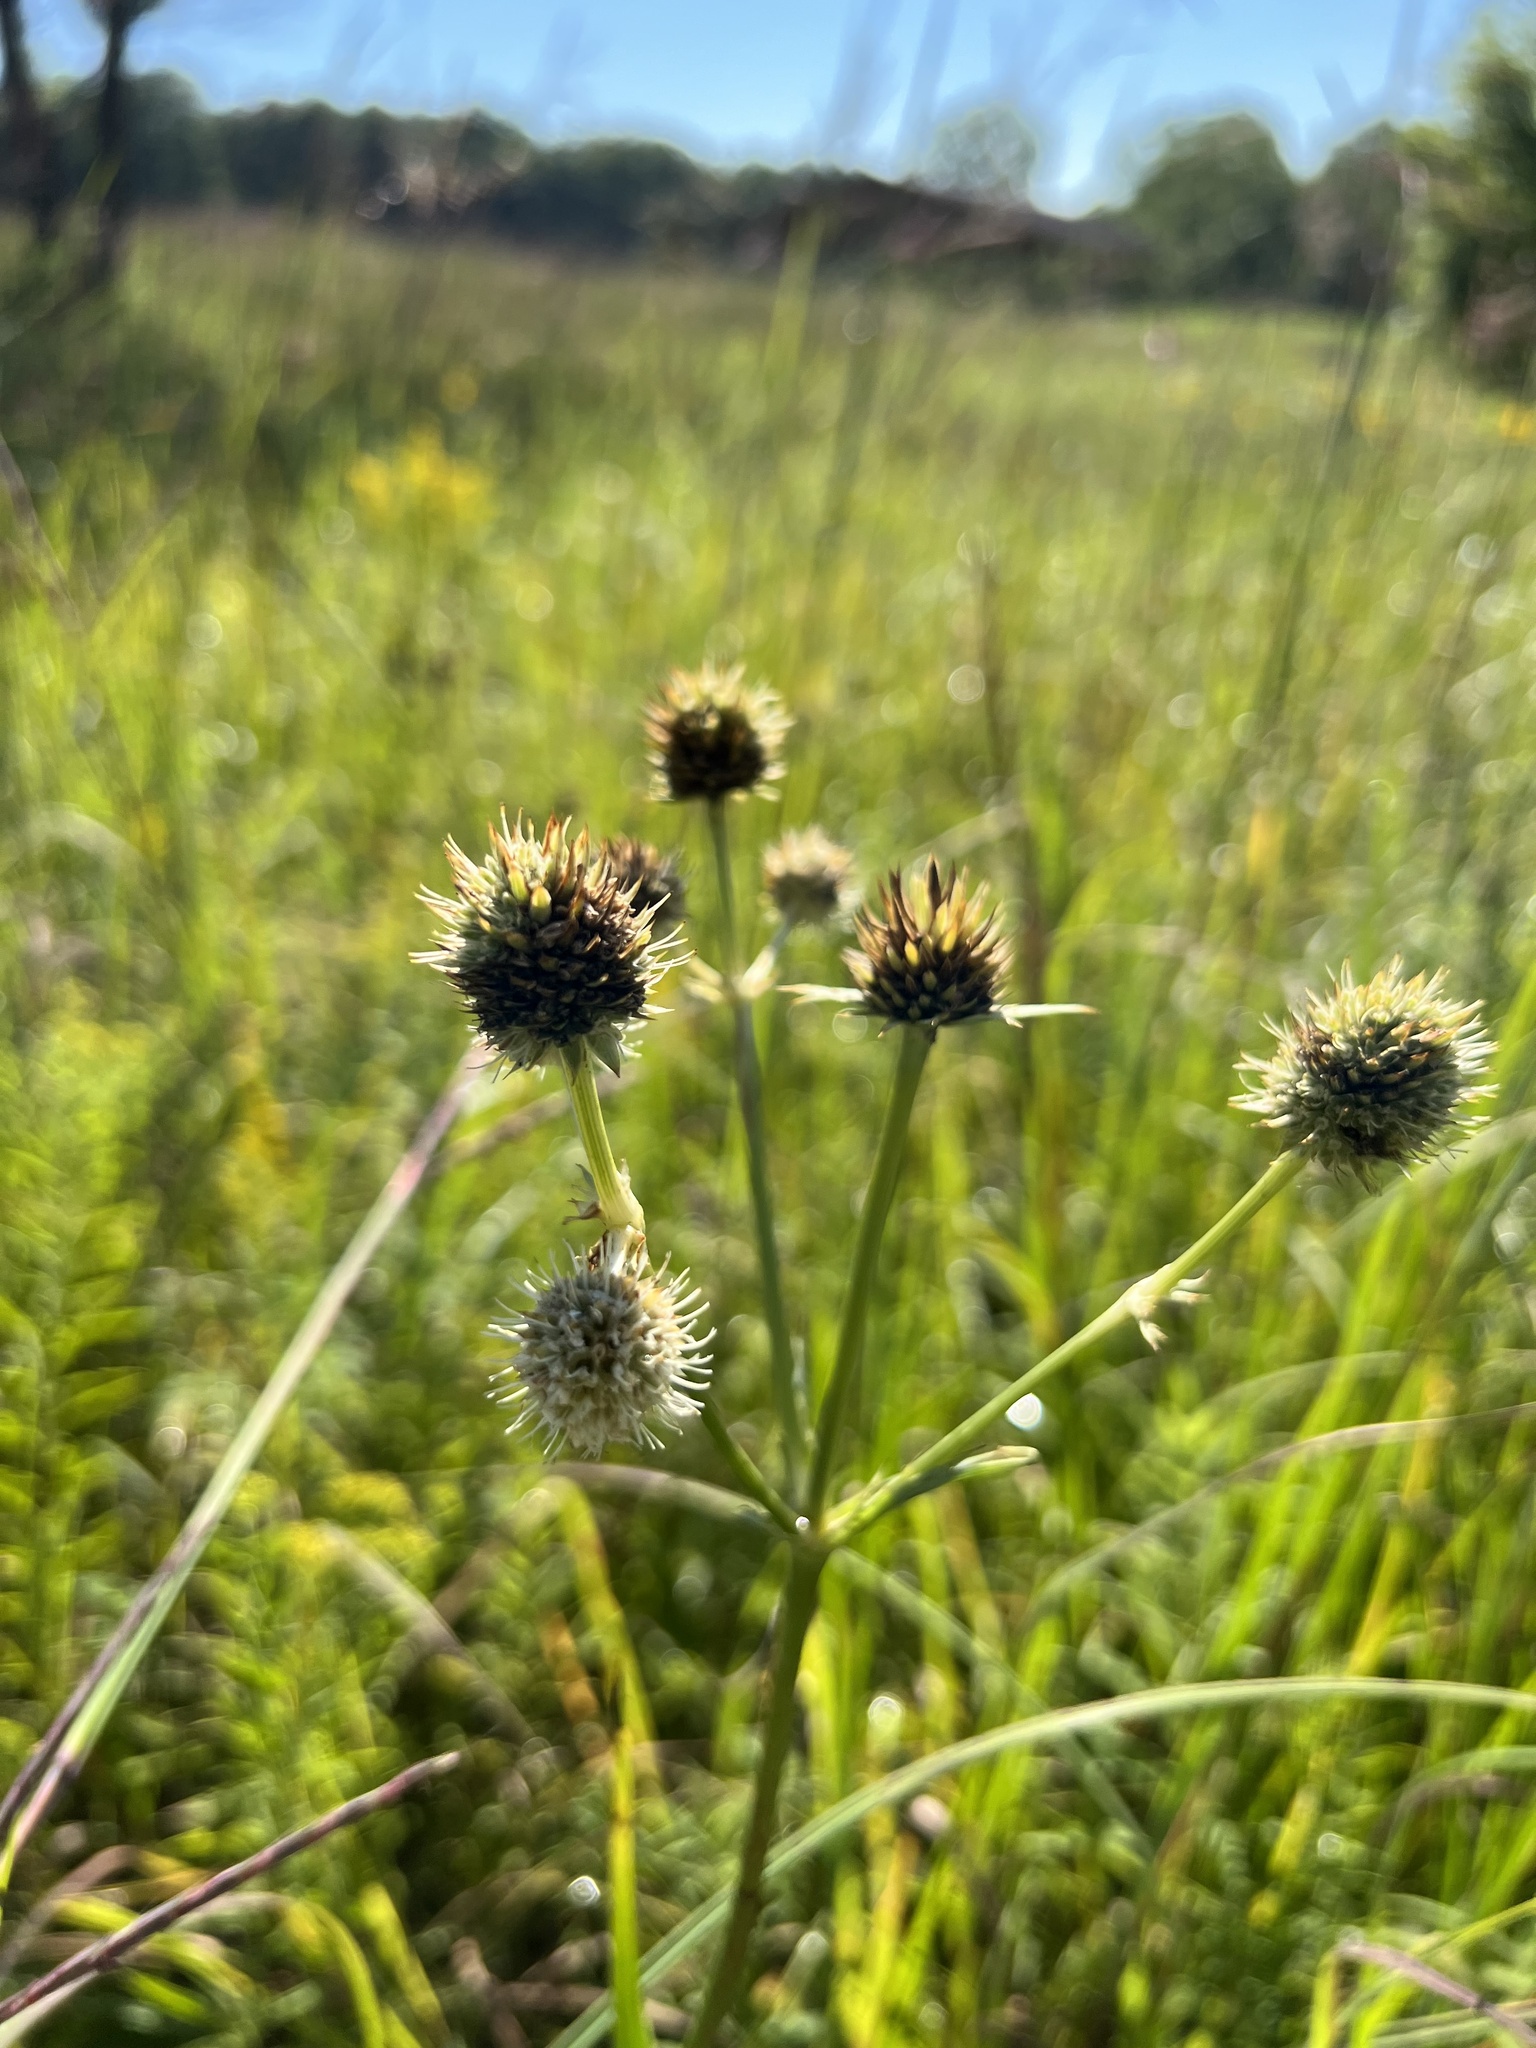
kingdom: Plantae
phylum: Tracheophyta
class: Magnoliopsida
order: Apiales
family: Apiaceae
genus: Eryngium
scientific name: Eryngium yuccifolium
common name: Button eryngo
